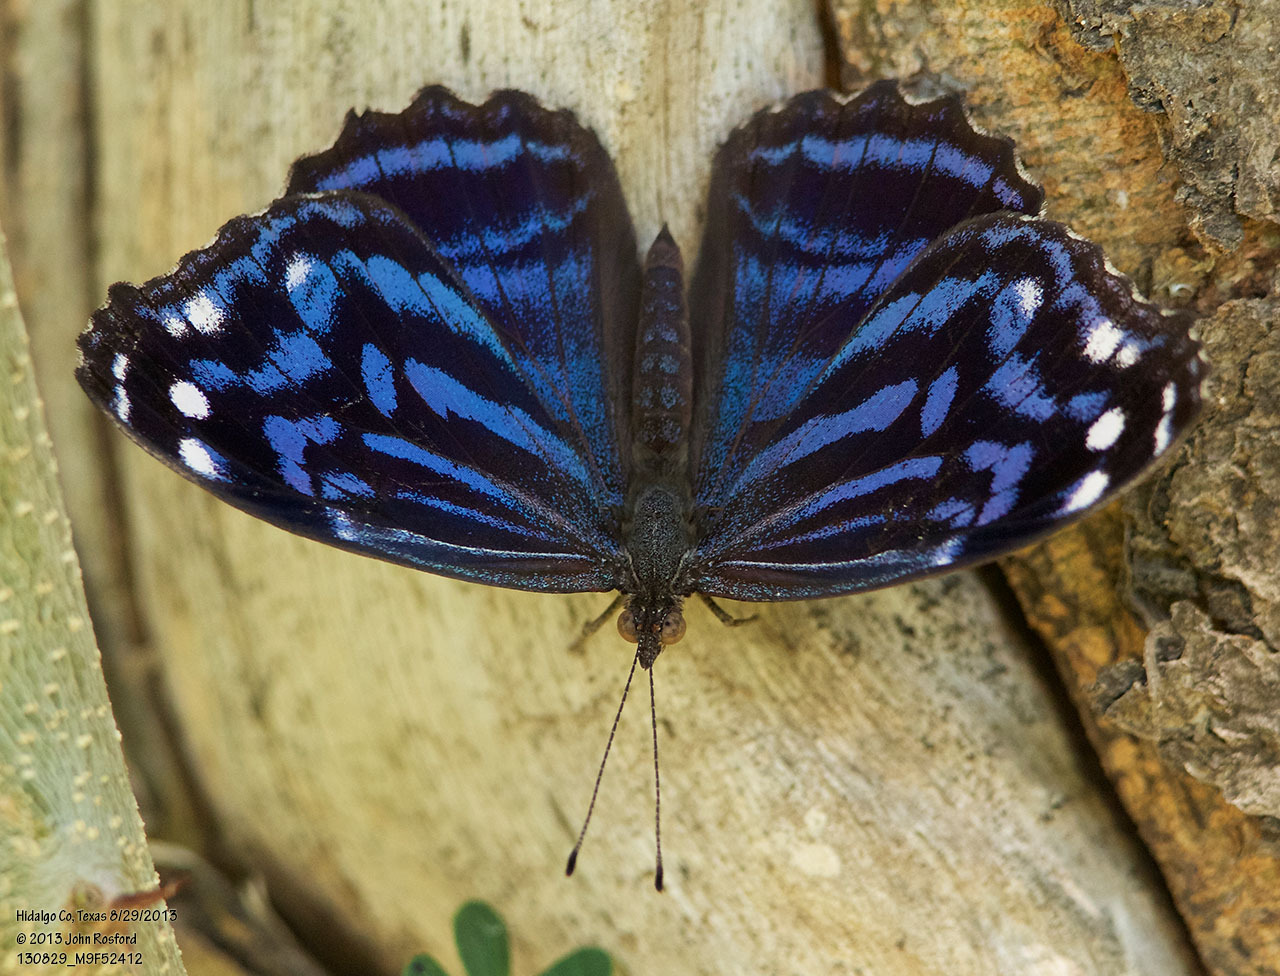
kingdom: Animalia
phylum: Arthropoda
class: Insecta
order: Lepidoptera
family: Nymphalidae
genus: Myscelia
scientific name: Myscelia ethusa
